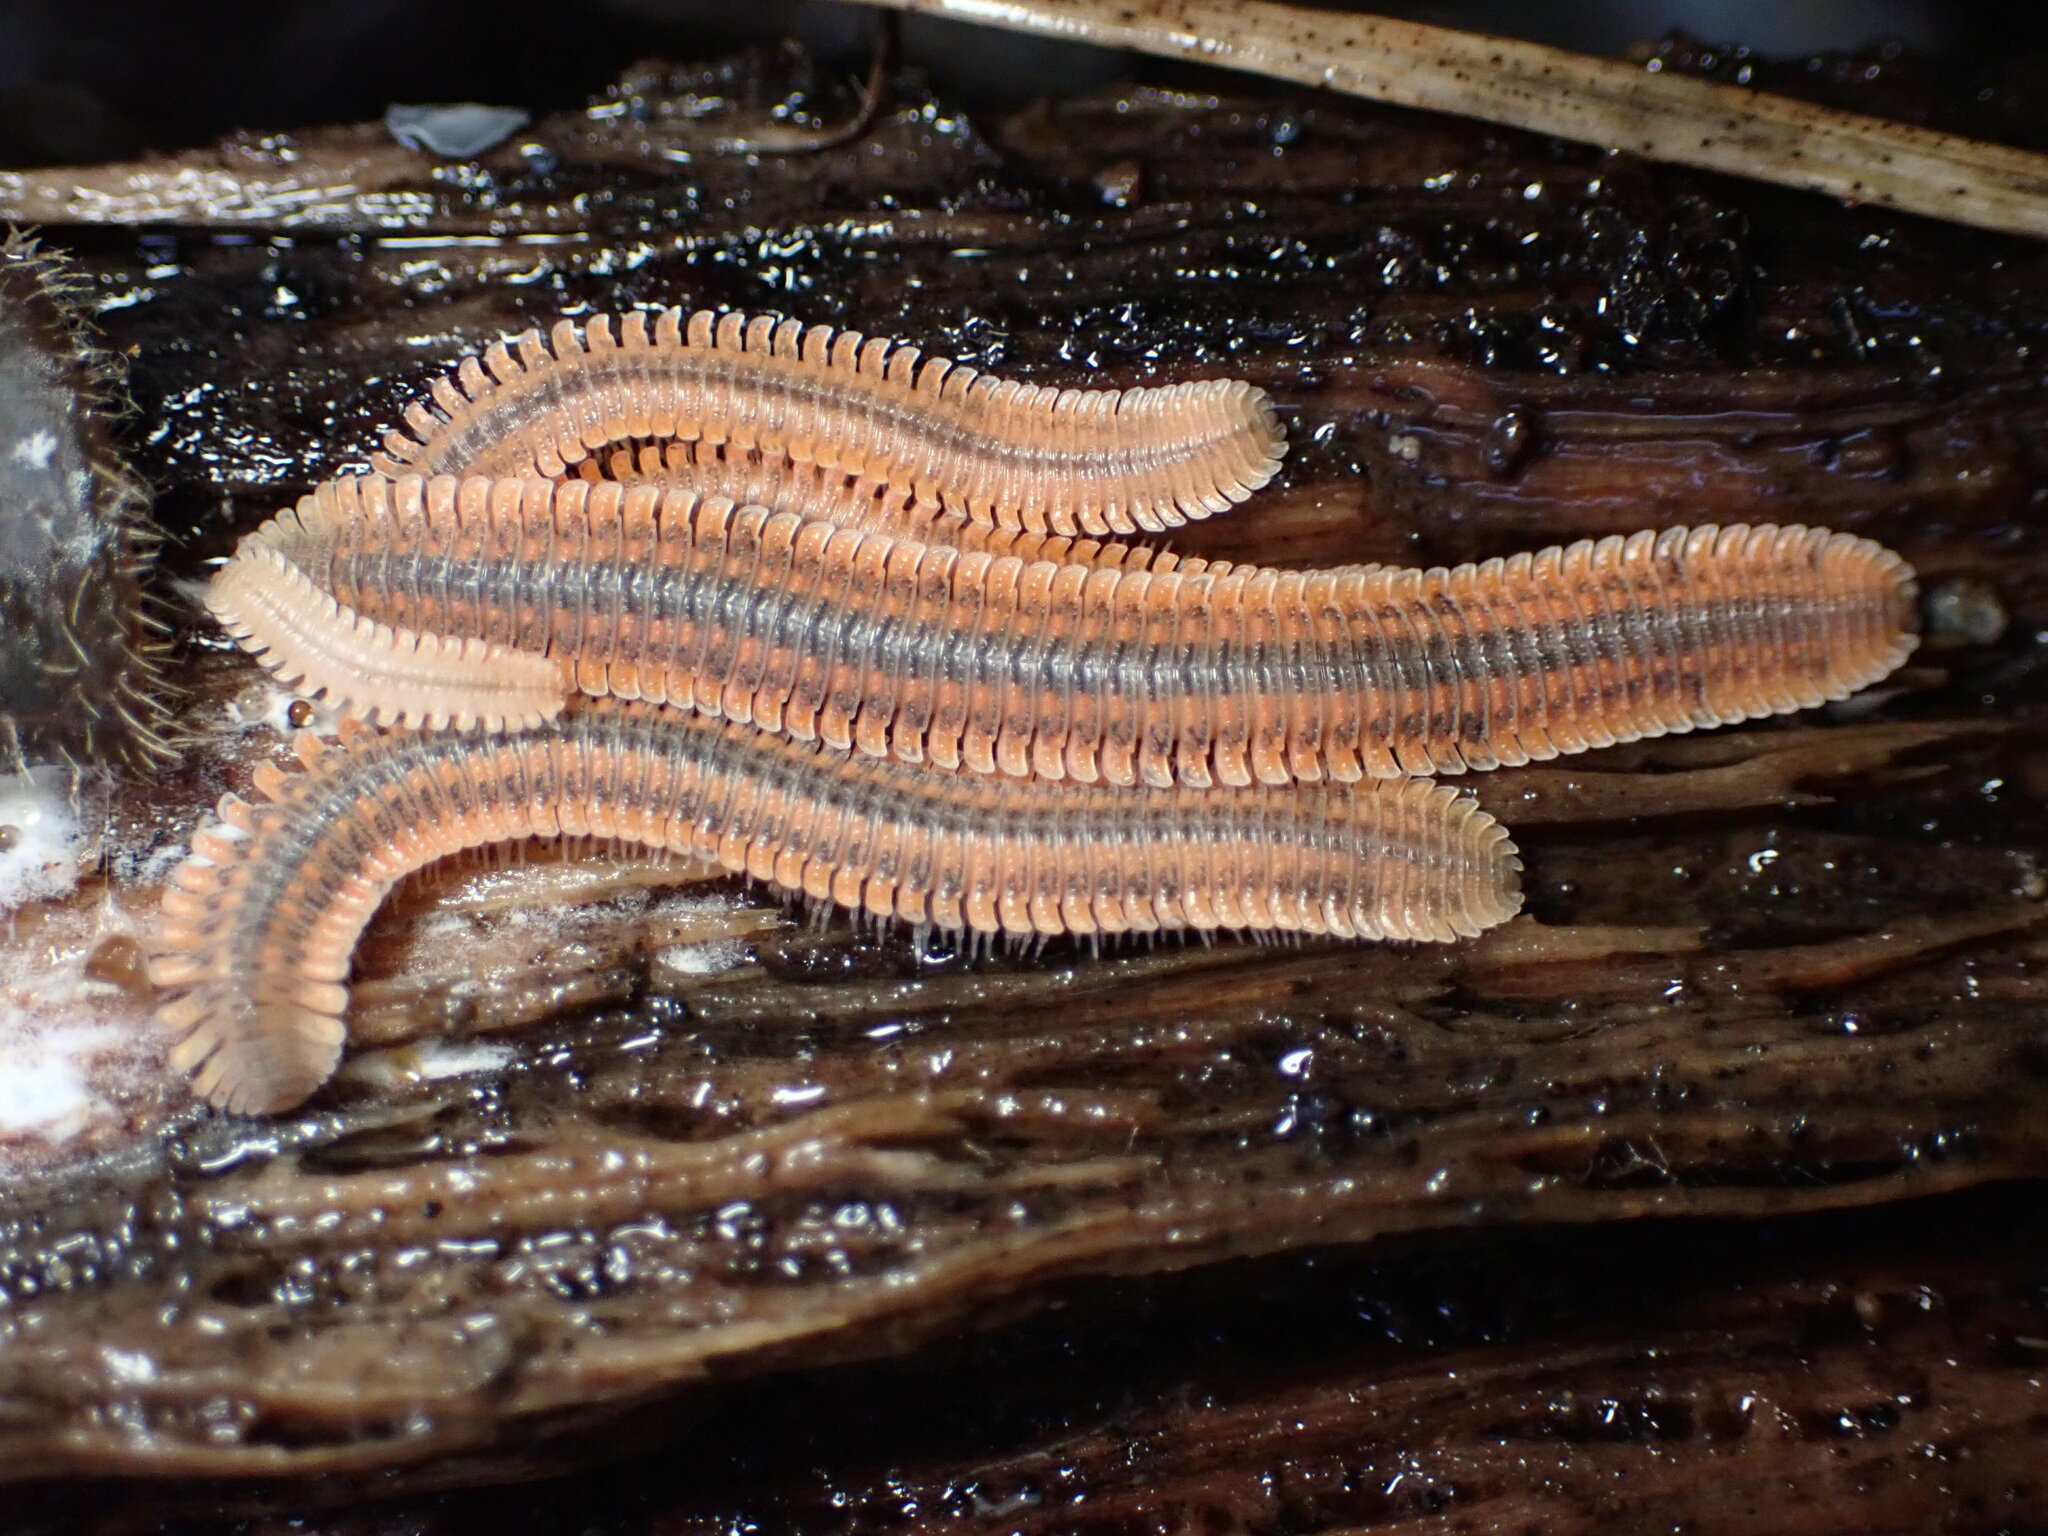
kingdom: Animalia
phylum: Arthropoda
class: Diplopoda
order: Platydesmida
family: Andrognathidae
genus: Brachycybe
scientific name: Brachycybe producta
